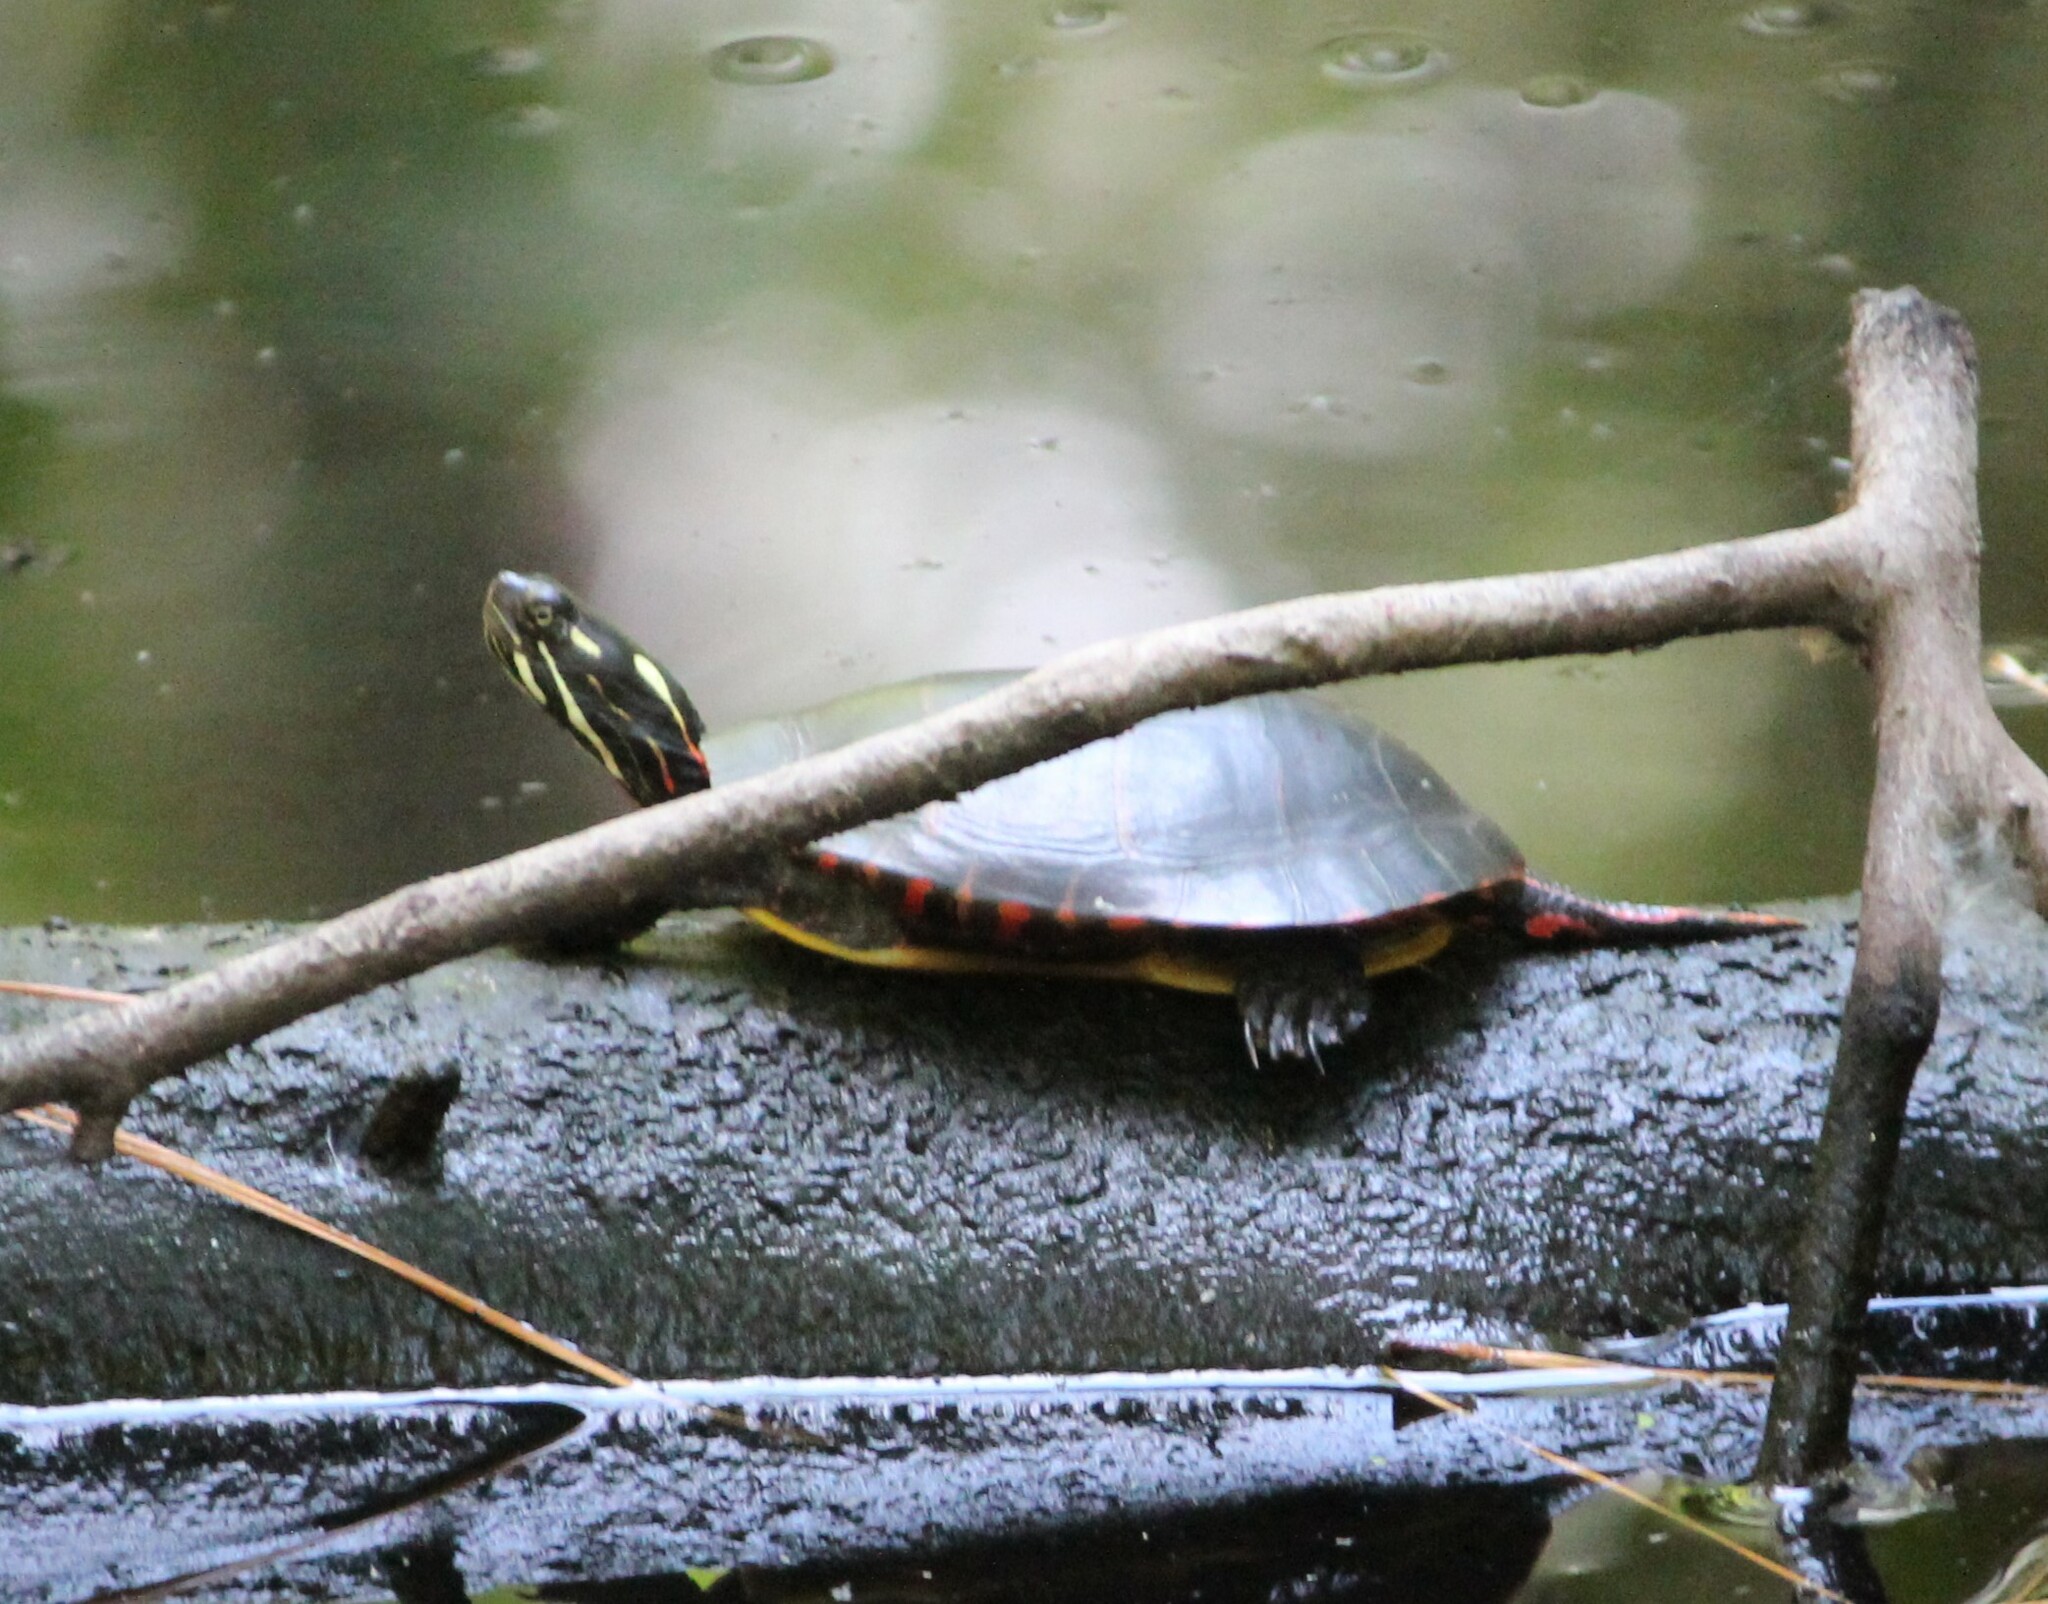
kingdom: Animalia
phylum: Chordata
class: Testudines
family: Emydidae
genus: Chrysemys
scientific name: Chrysemys picta
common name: Painted turtle
